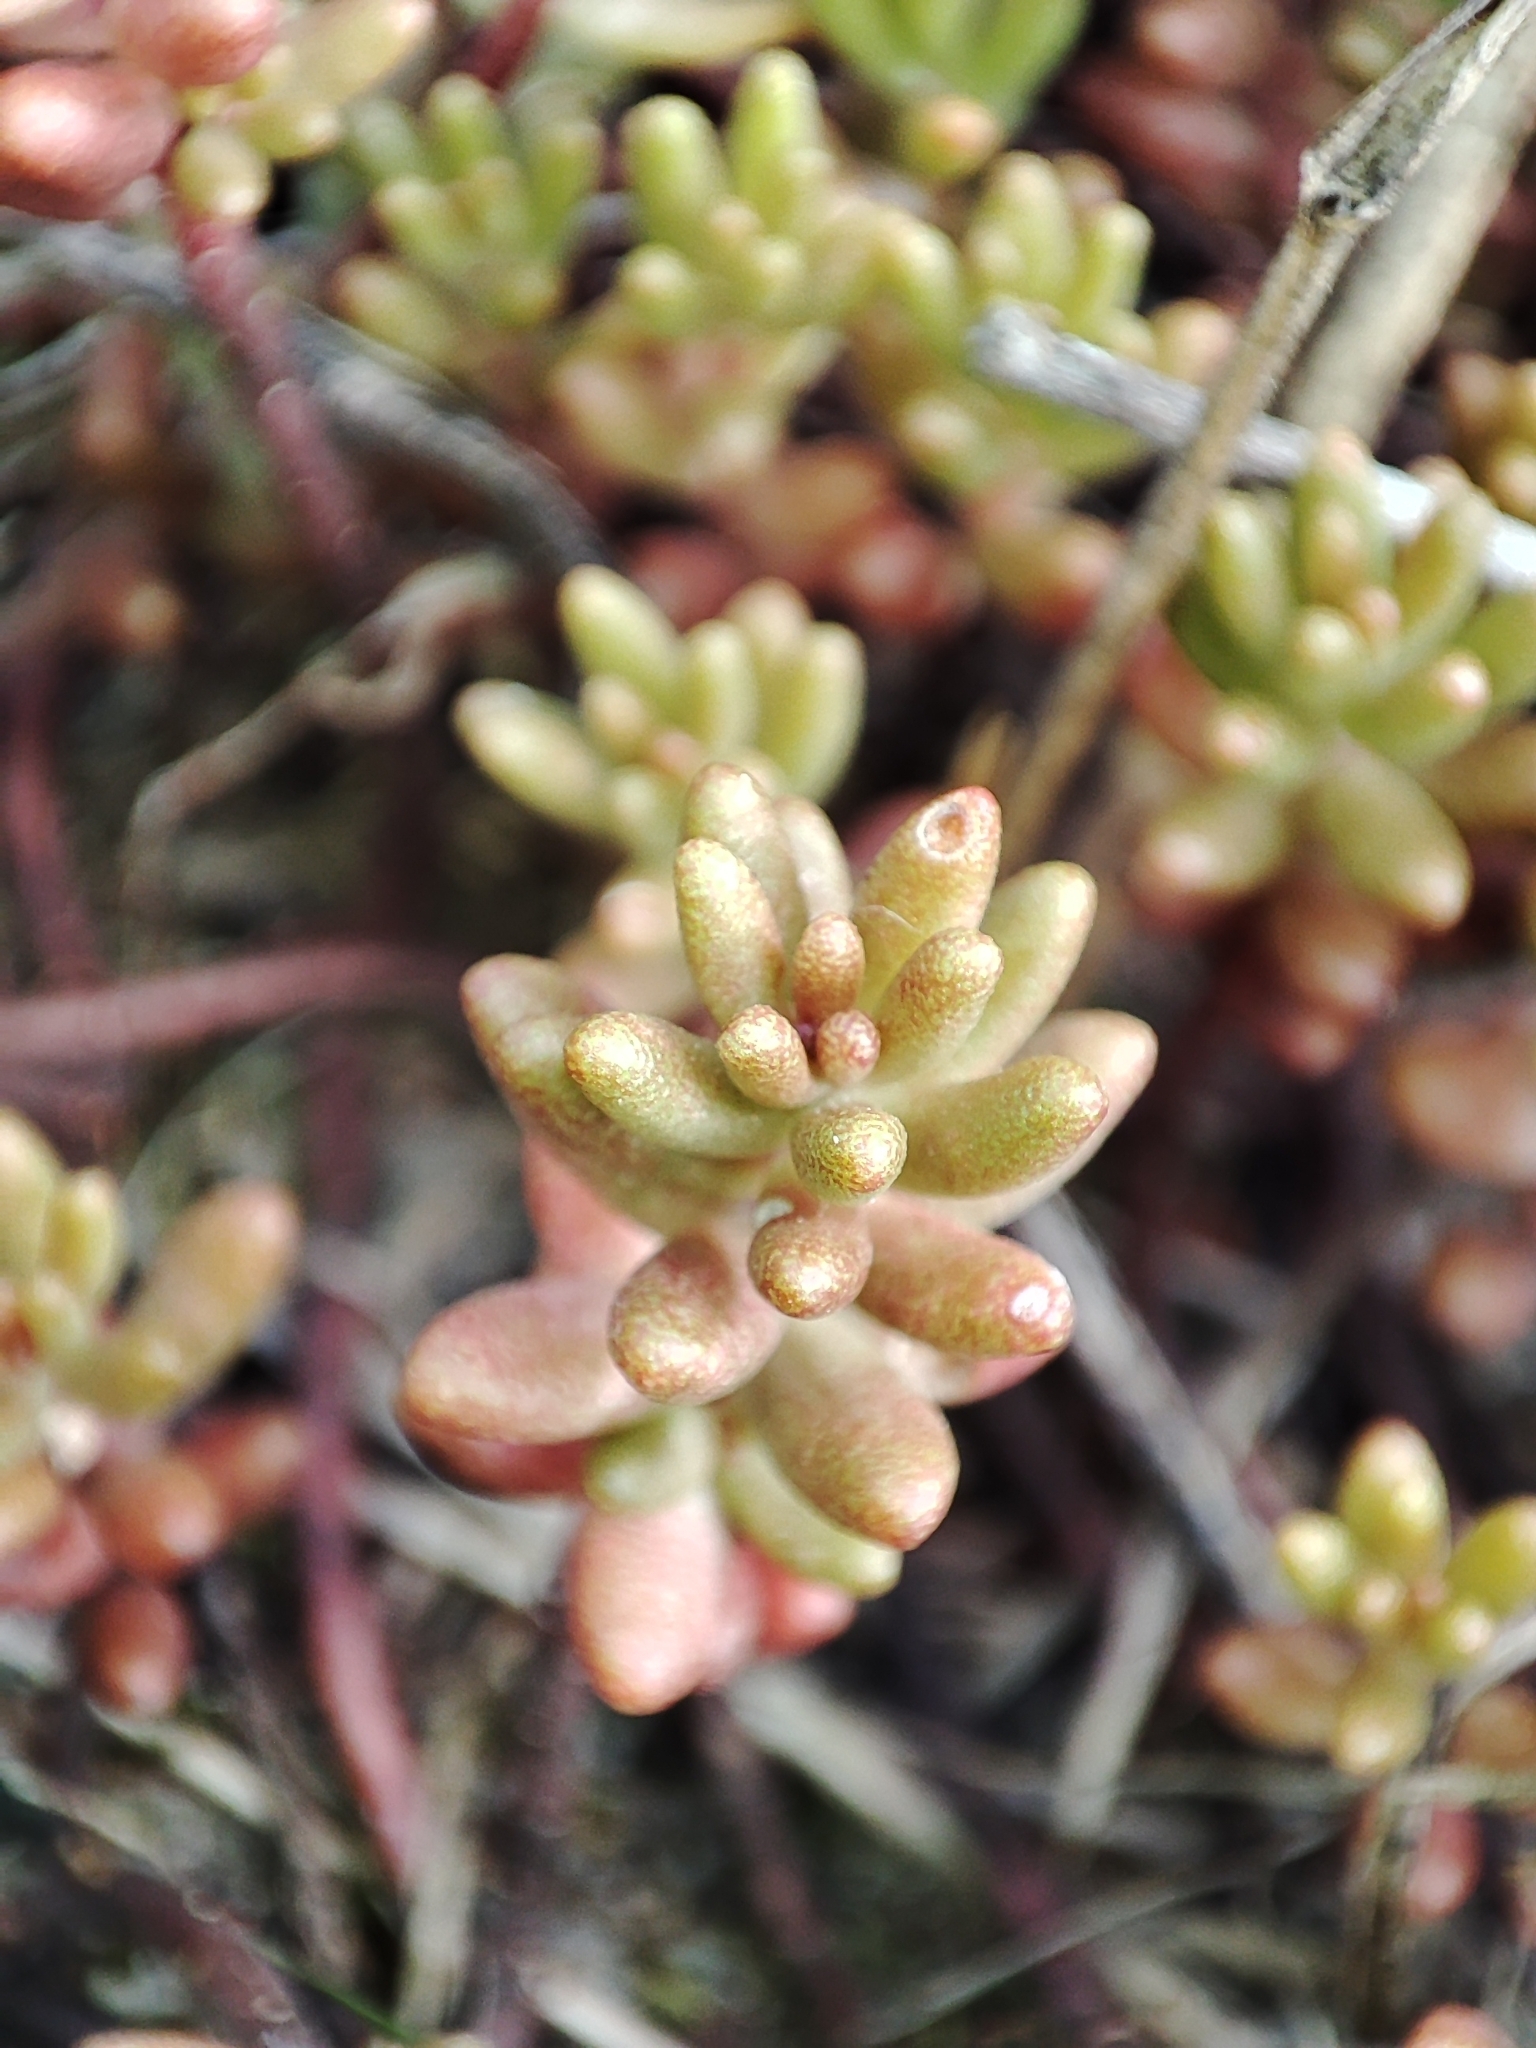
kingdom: Plantae
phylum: Tracheophyta
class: Magnoliopsida
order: Saxifragales
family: Crassulaceae
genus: Sedum
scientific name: Sedum album
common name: White stonecrop
